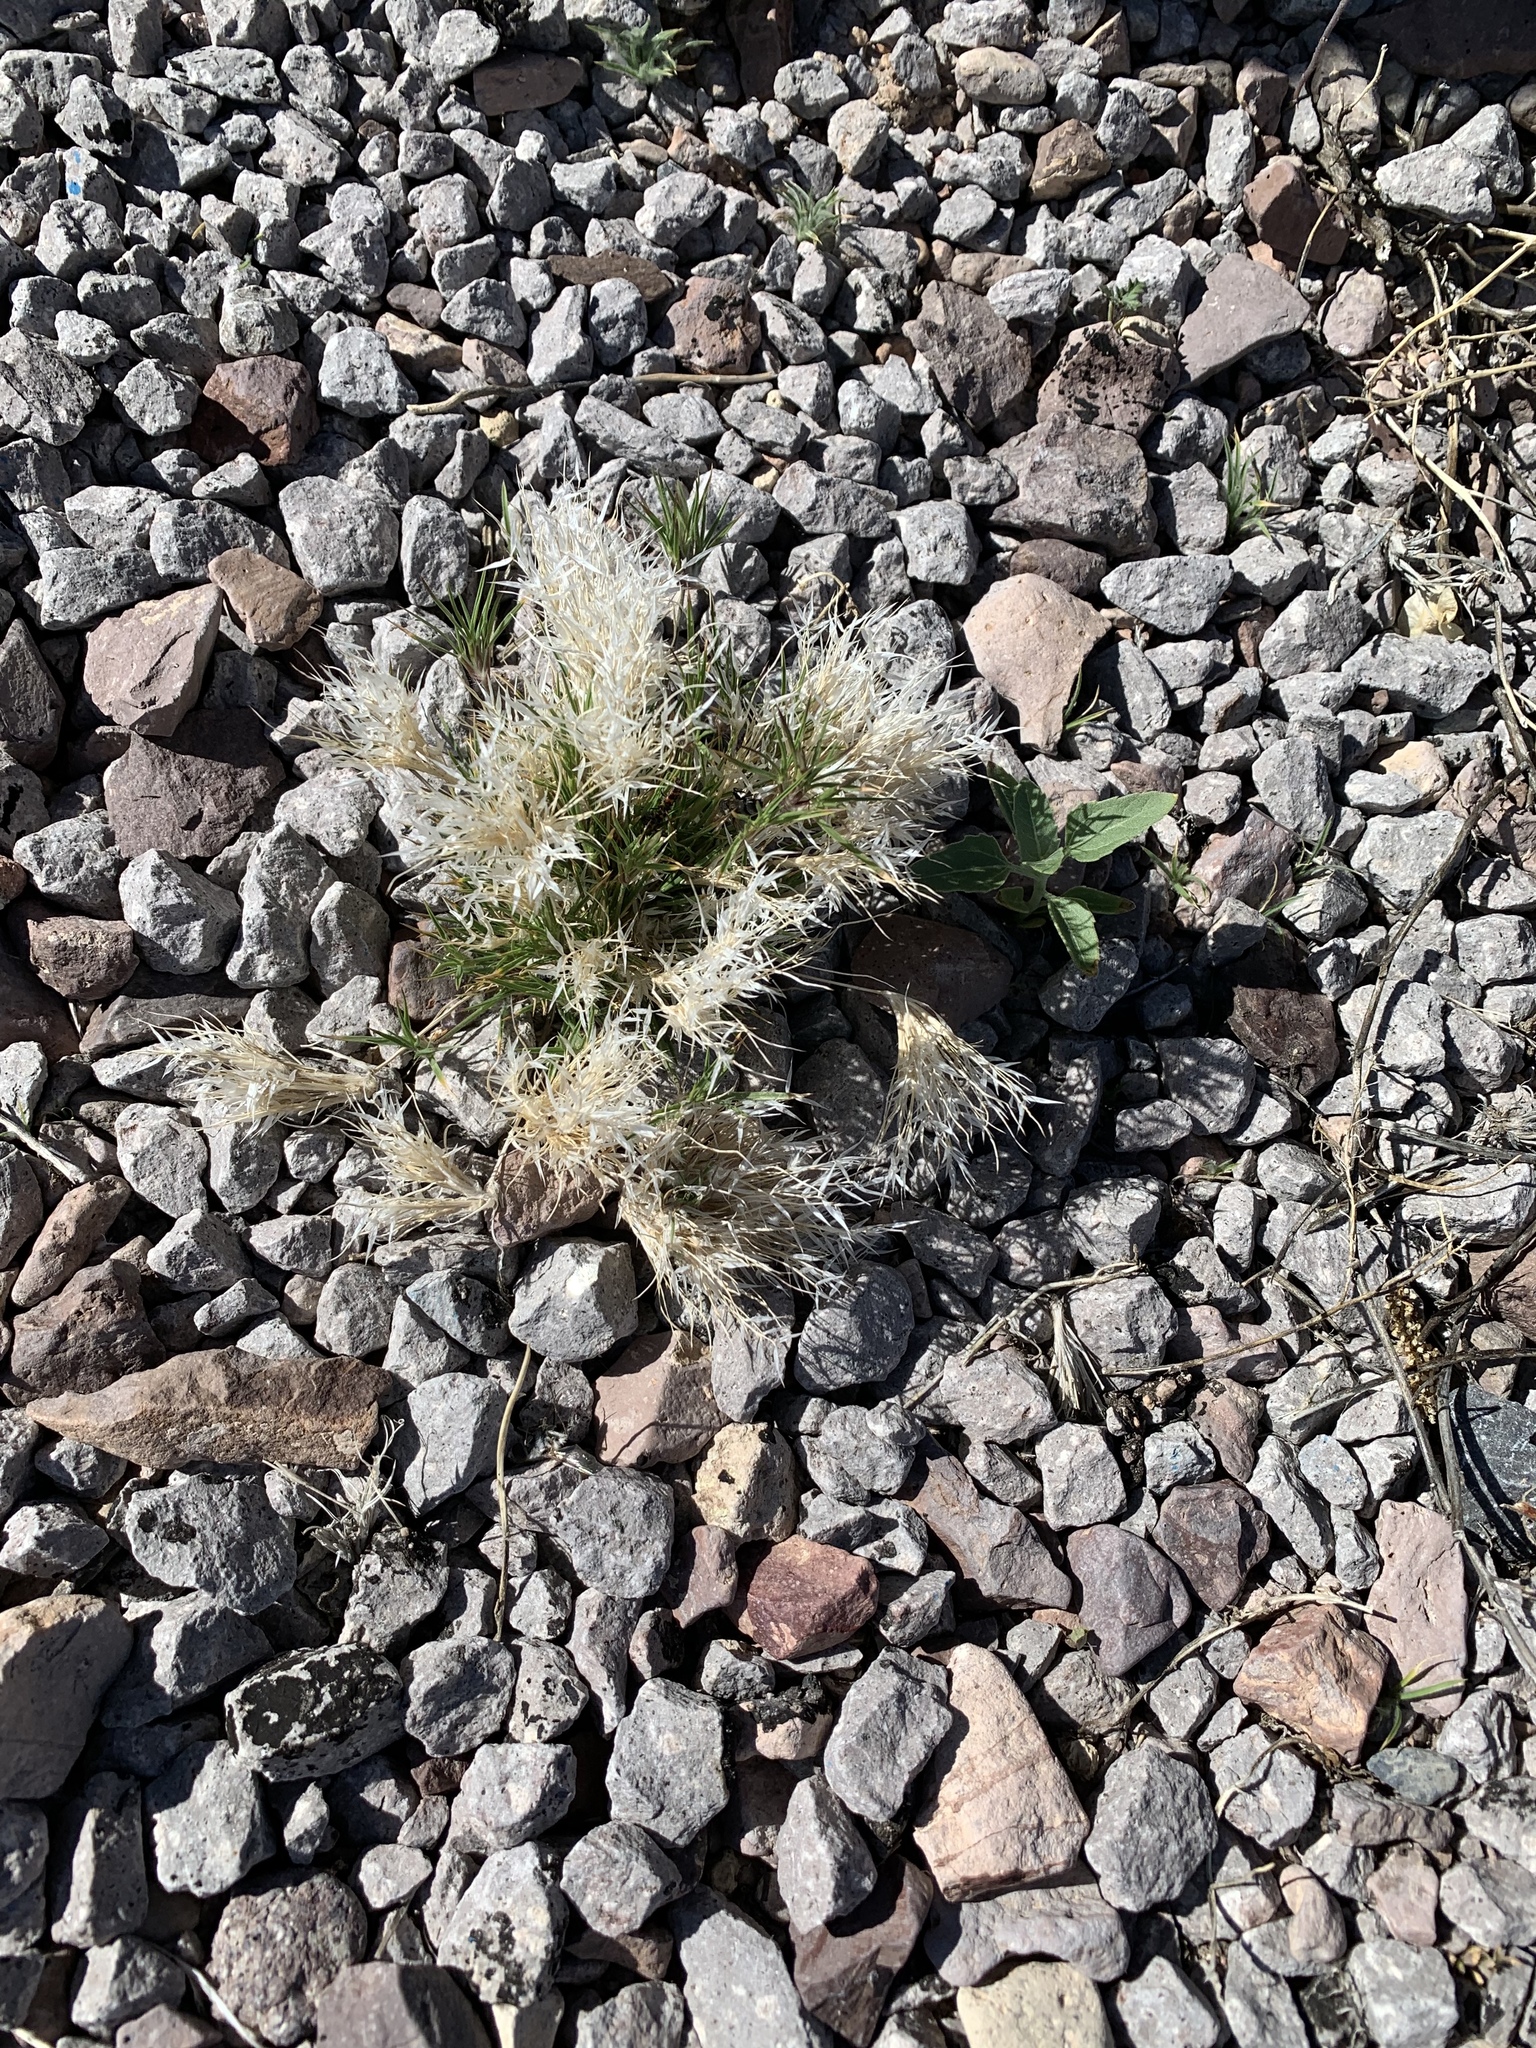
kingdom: Plantae
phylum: Tracheophyta
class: Liliopsida
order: Poales
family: Poaceae
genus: Dasyochloa
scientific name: Dasyochloa pulchella
